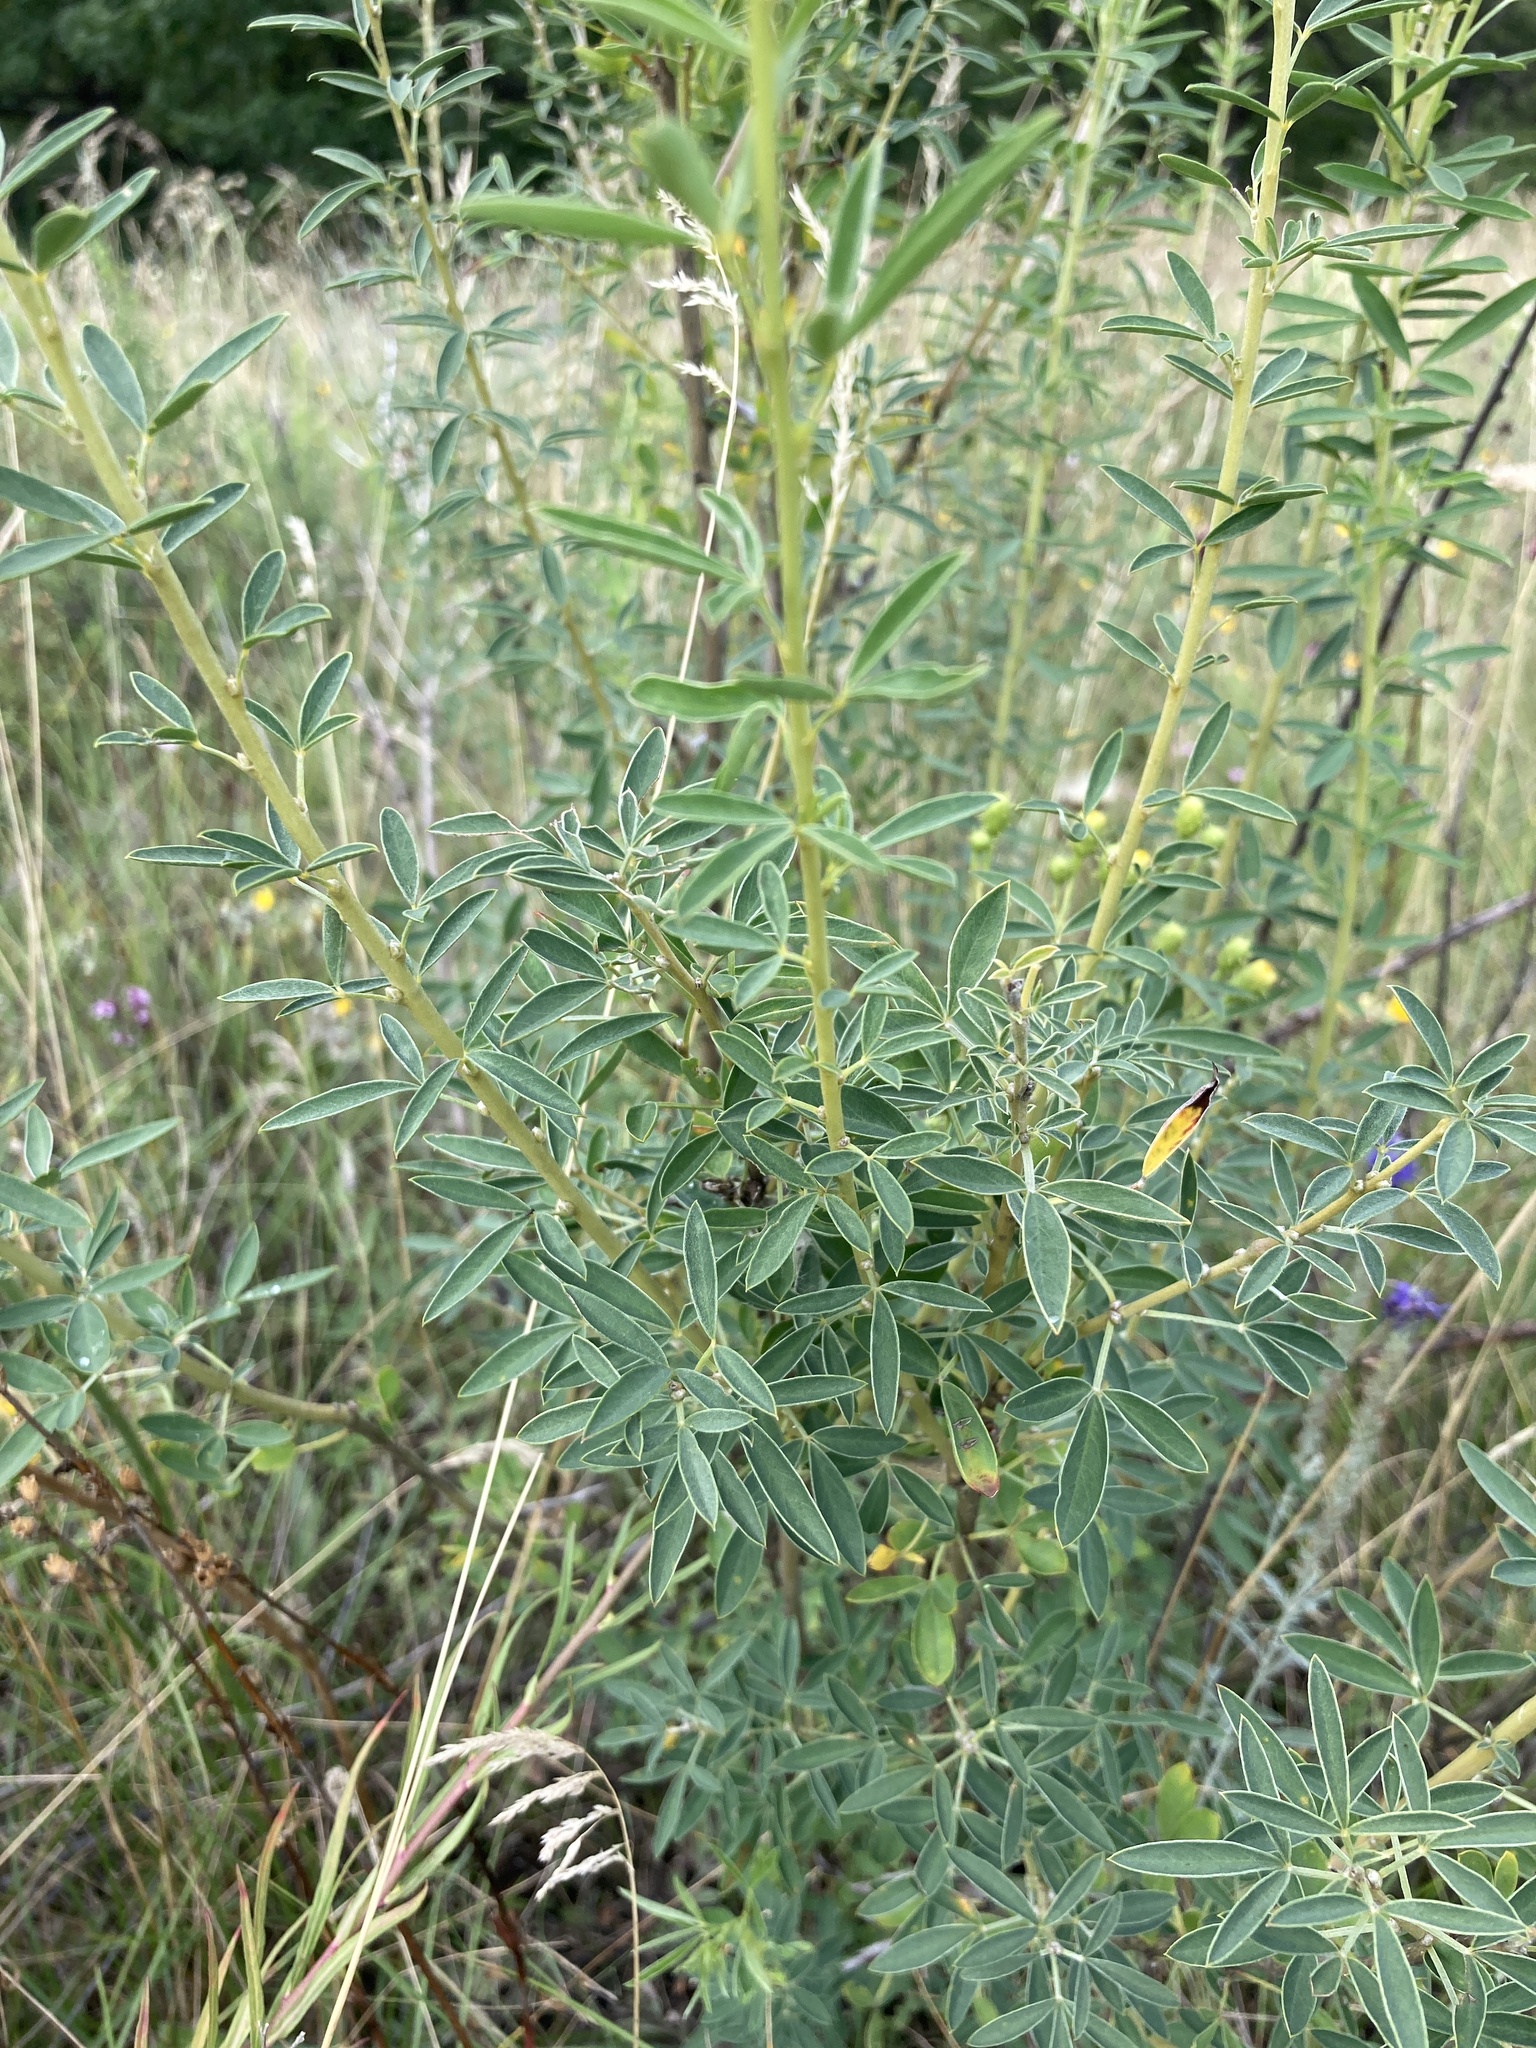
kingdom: Plantae
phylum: Tracheophyta
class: Magnoliopsida
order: Fabales
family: Fabaceae
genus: Chamaecytisus
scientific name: Chamaecytisus ruthenicus
